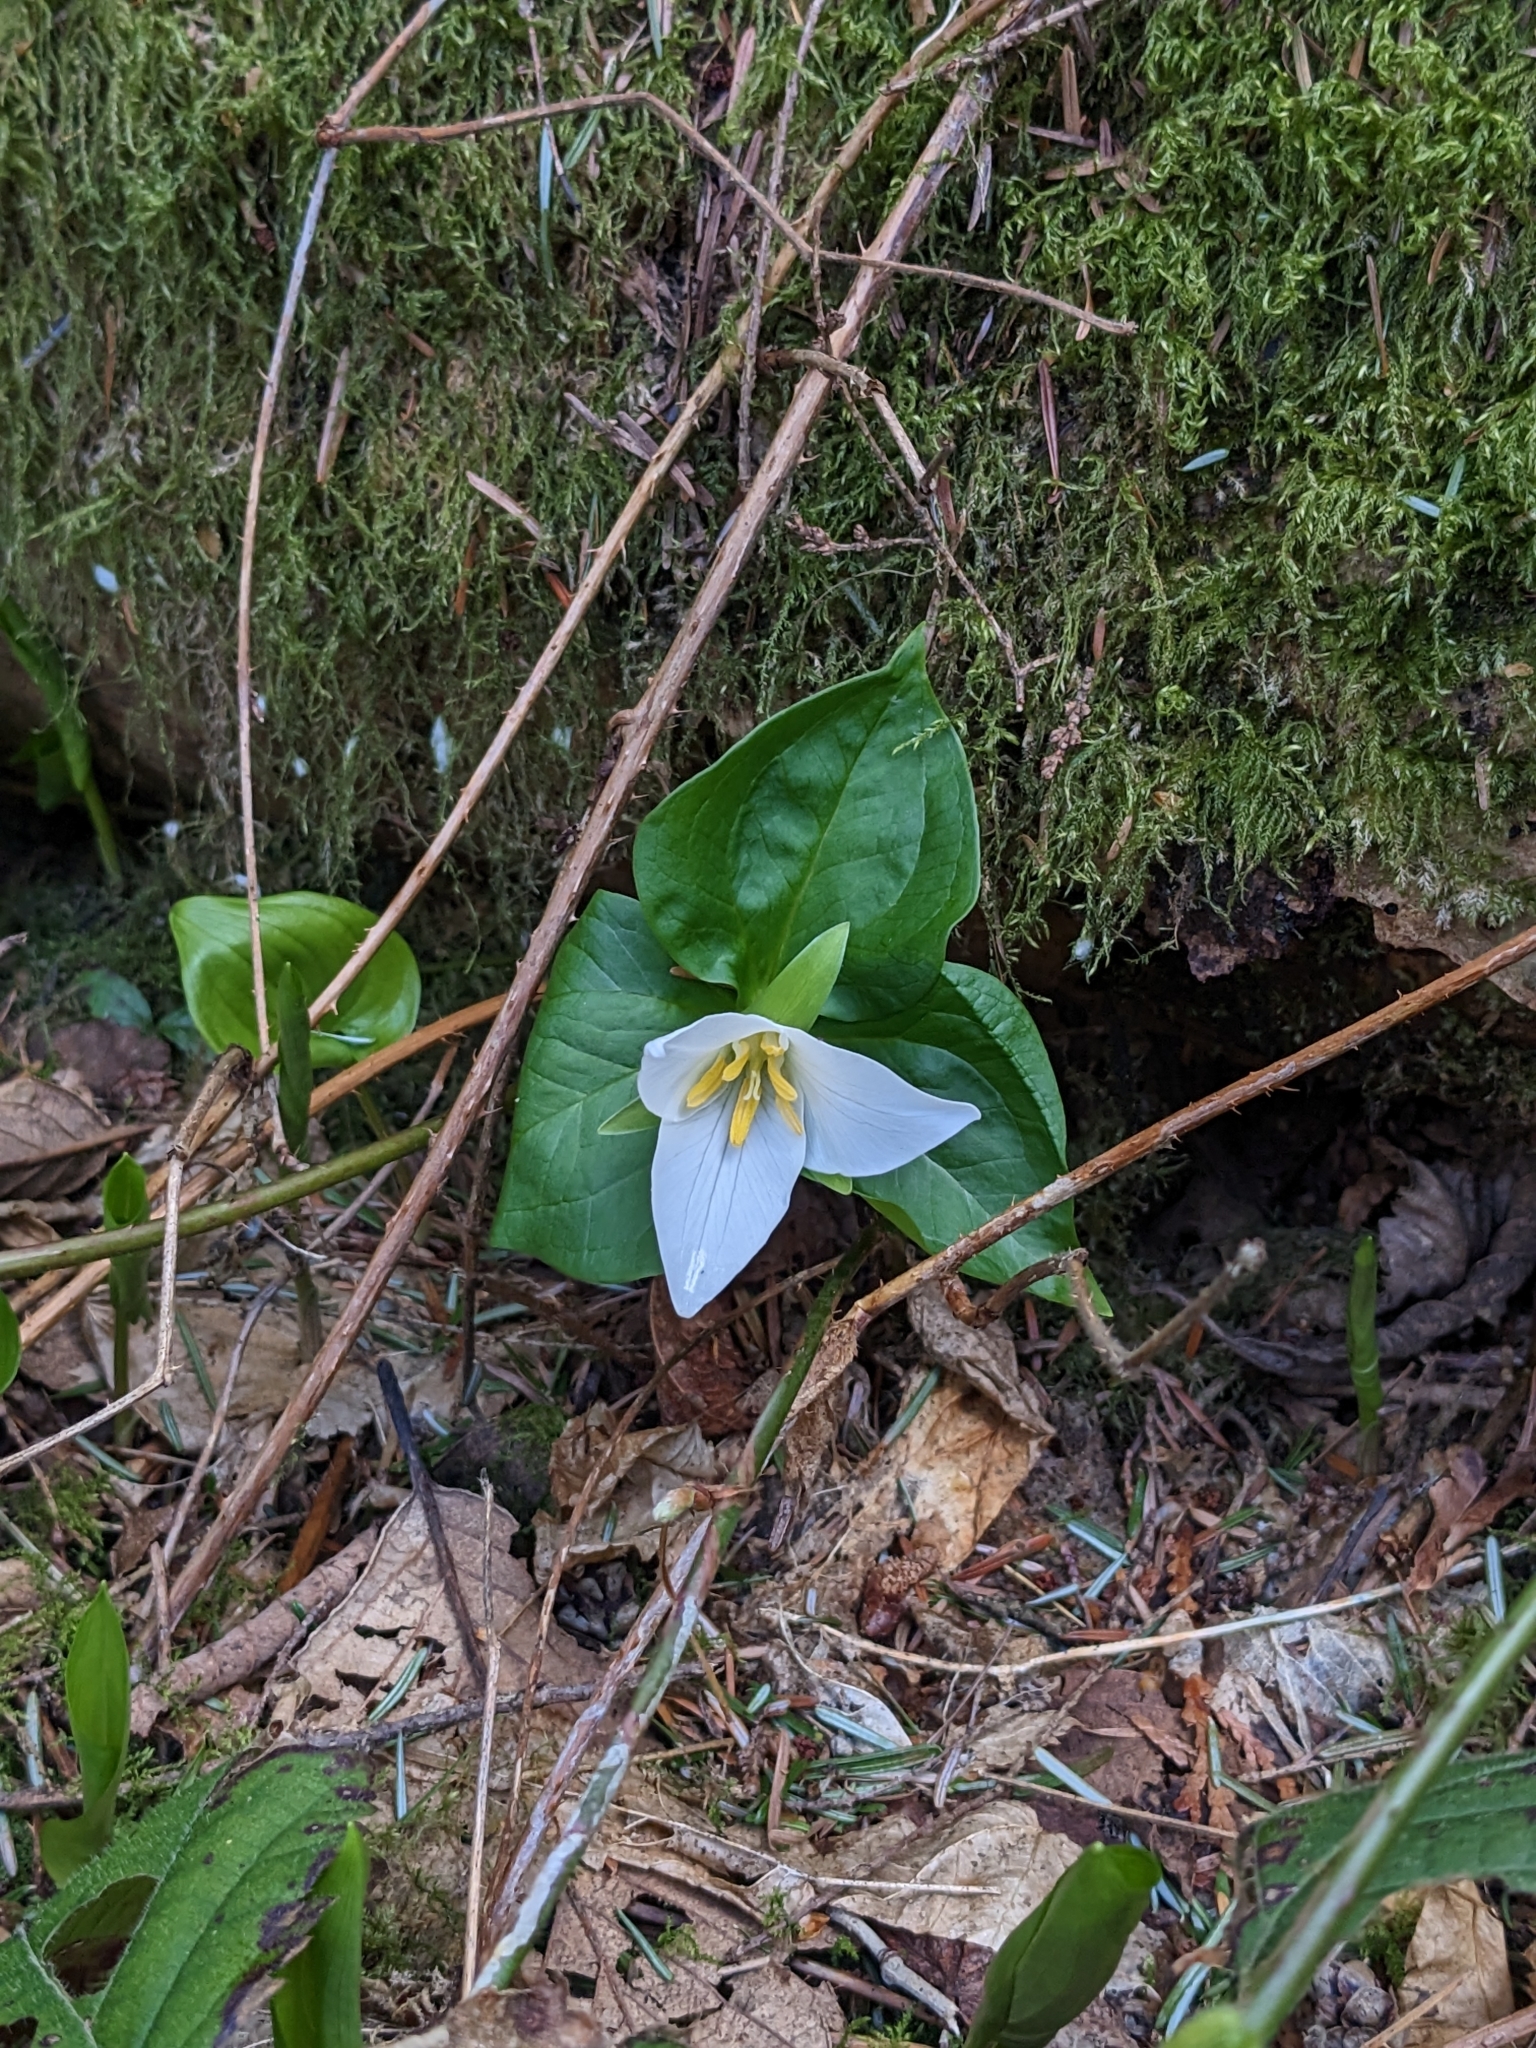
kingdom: Plantae
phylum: Tracheophyta
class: Liliopsida
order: Liliales
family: Melanthiaceae
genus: Trillium
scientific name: Trillium ovatum
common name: Pacific trillium
